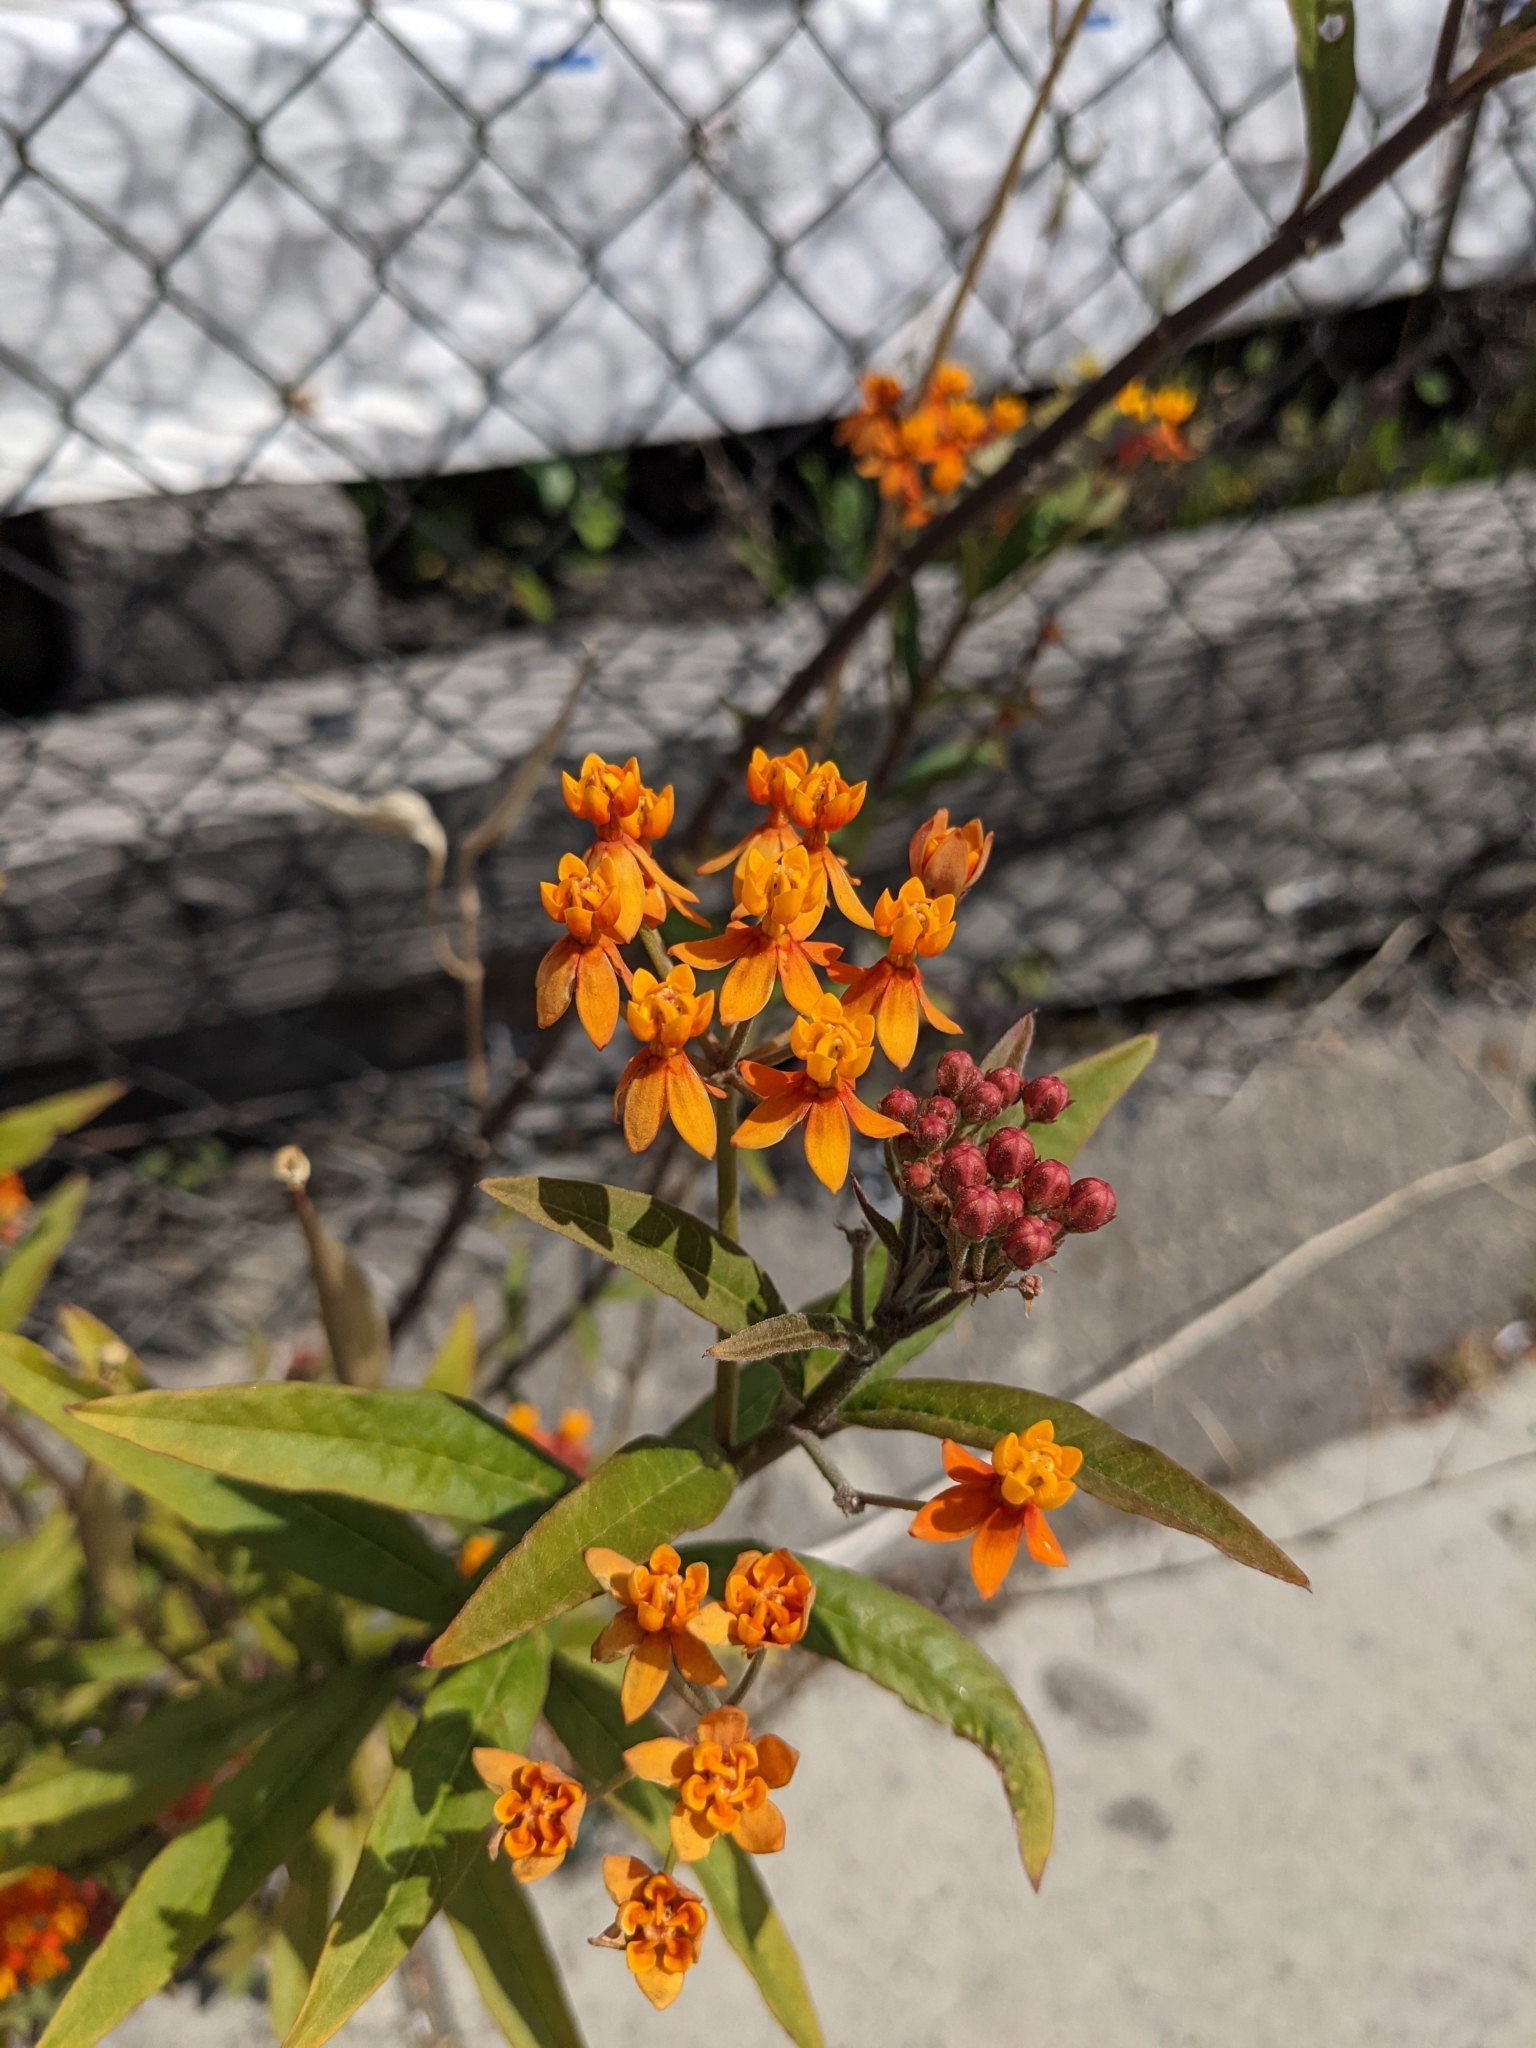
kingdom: Plantae
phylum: Tracheophyta
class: Magnoliopsida
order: Gentianales
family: Apocynaceae
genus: Asclepias
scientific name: Asclepias curassavica
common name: Bloodflower
